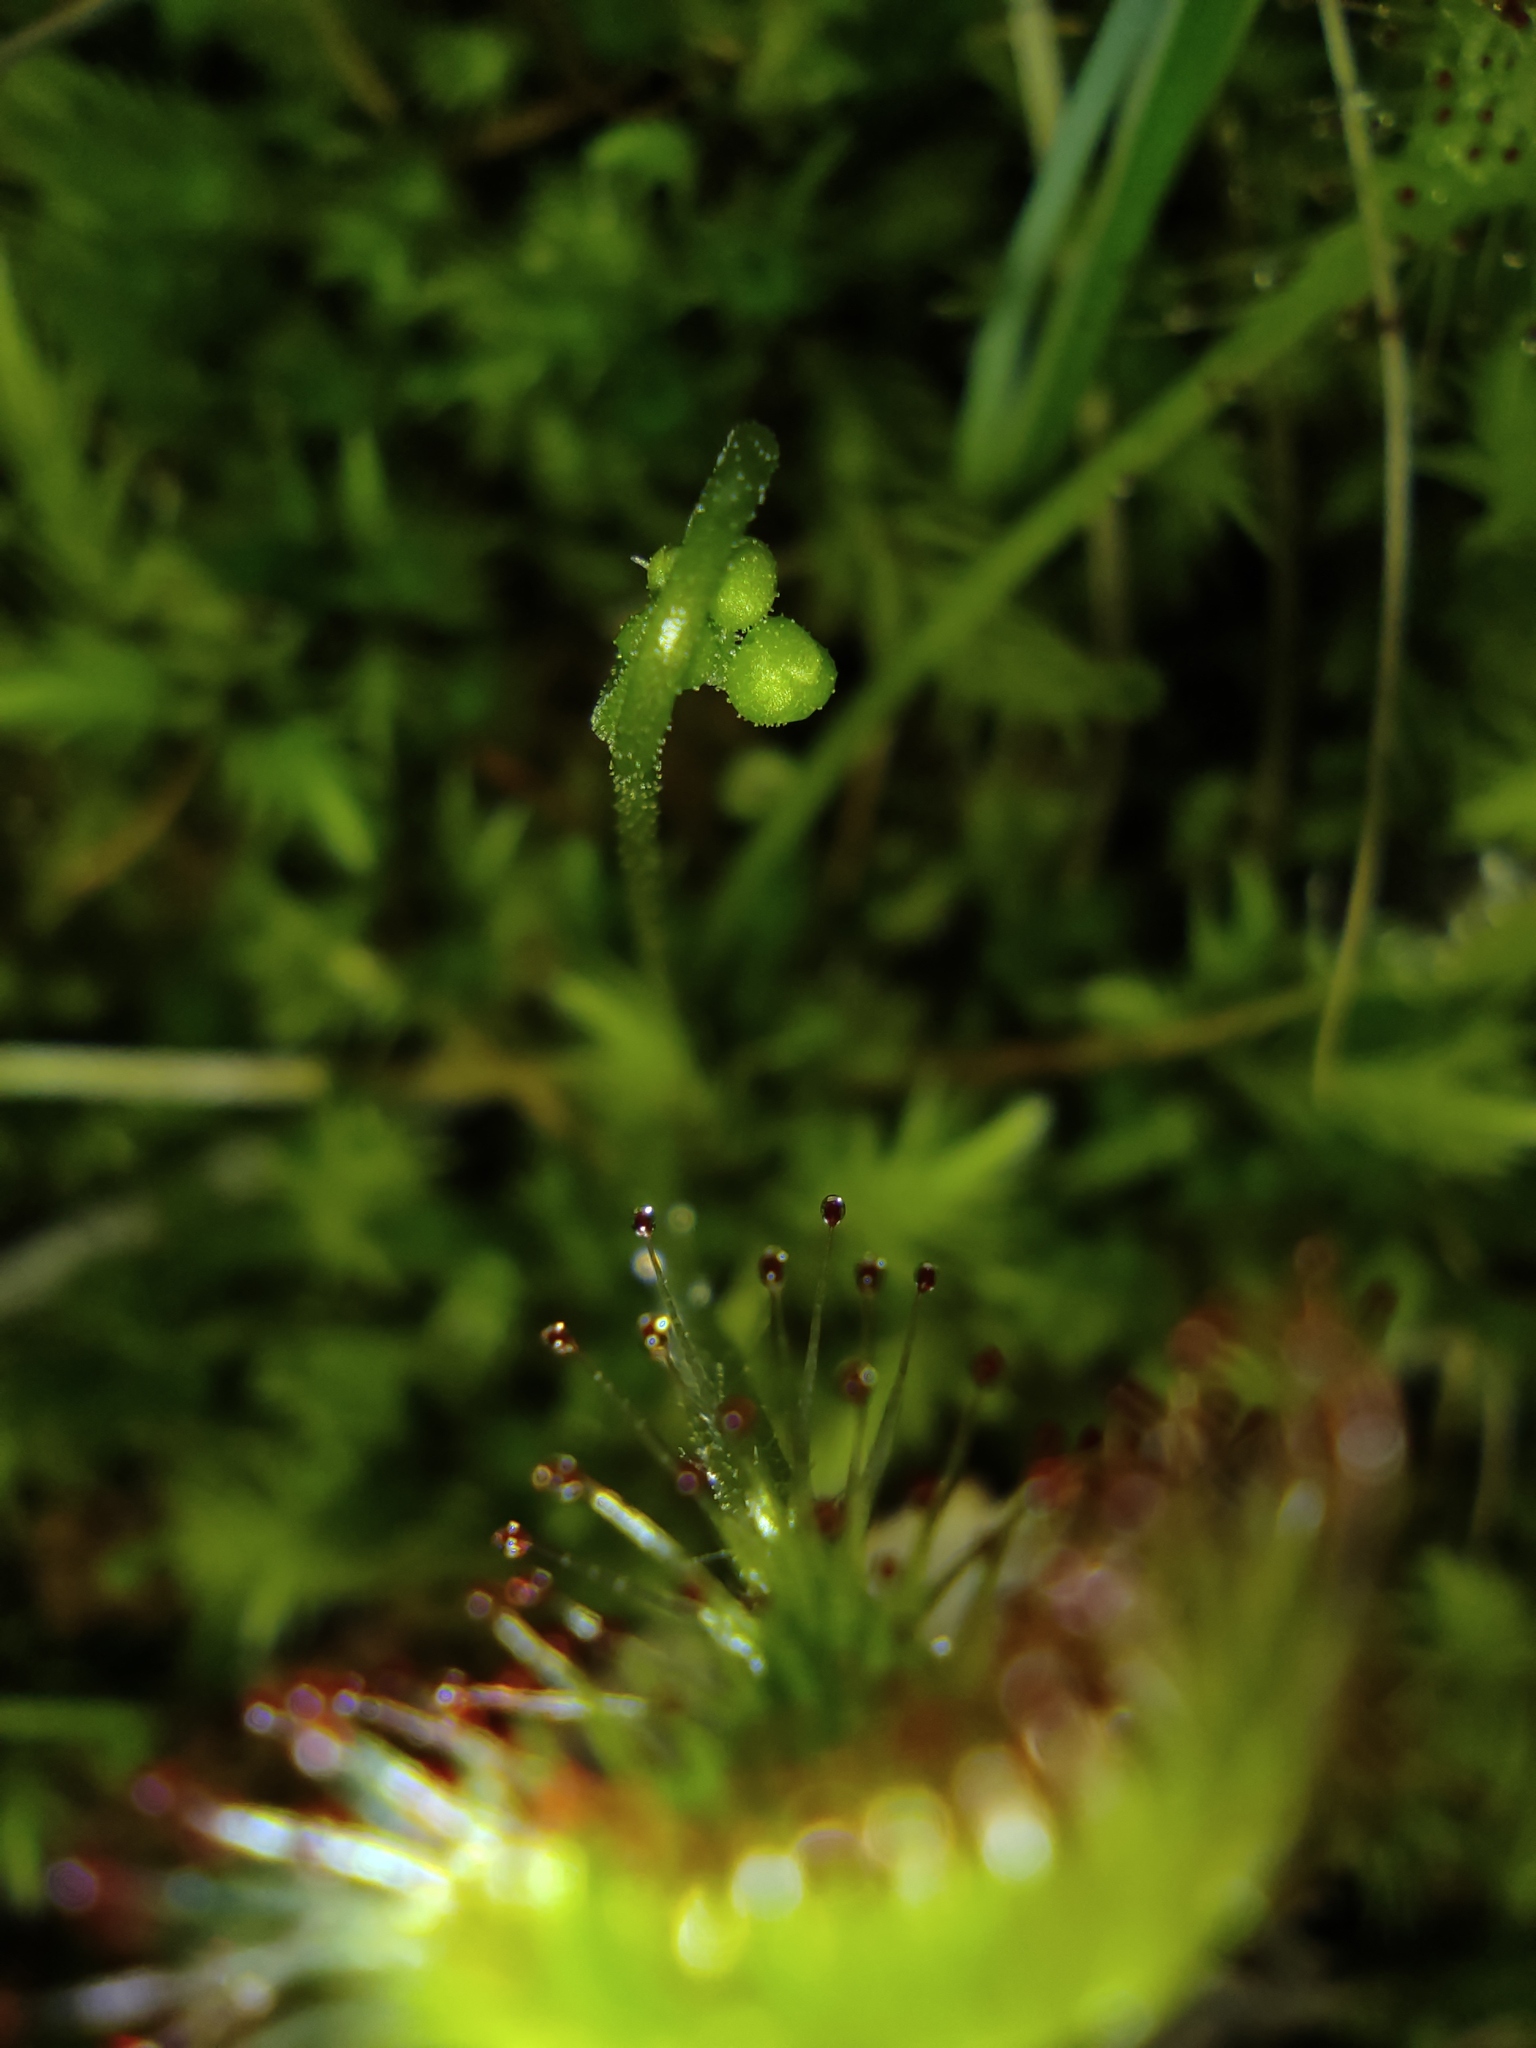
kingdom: Plantae
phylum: Tracheophyta
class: Magnoliopsida
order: Caryophyllales
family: Droseraceae
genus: Drosera
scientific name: Drosera rotundifolia
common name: Round-leaved sundew
